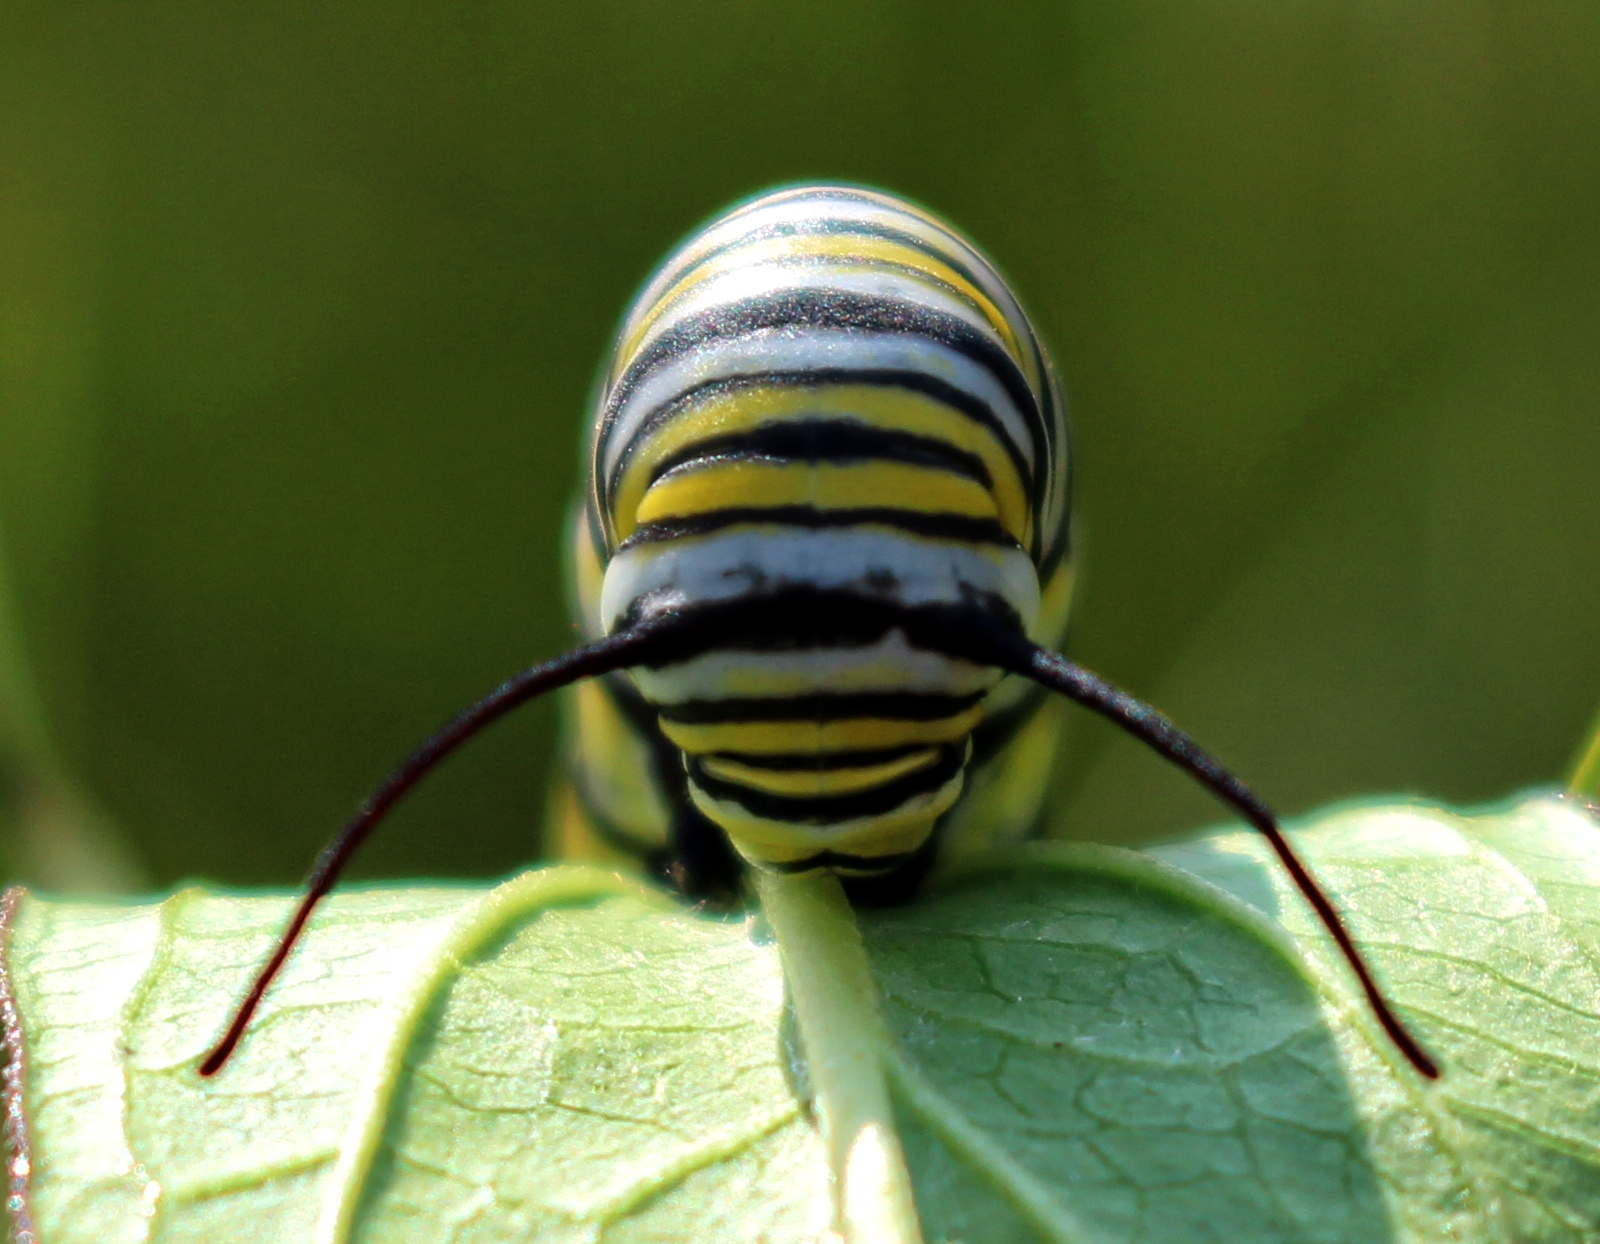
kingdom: Animalia
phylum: Arthropoda
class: Insecta
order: Lepidoptera
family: Nymphalidae
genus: Danaus
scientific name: Danaus plexippus
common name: Monarch
